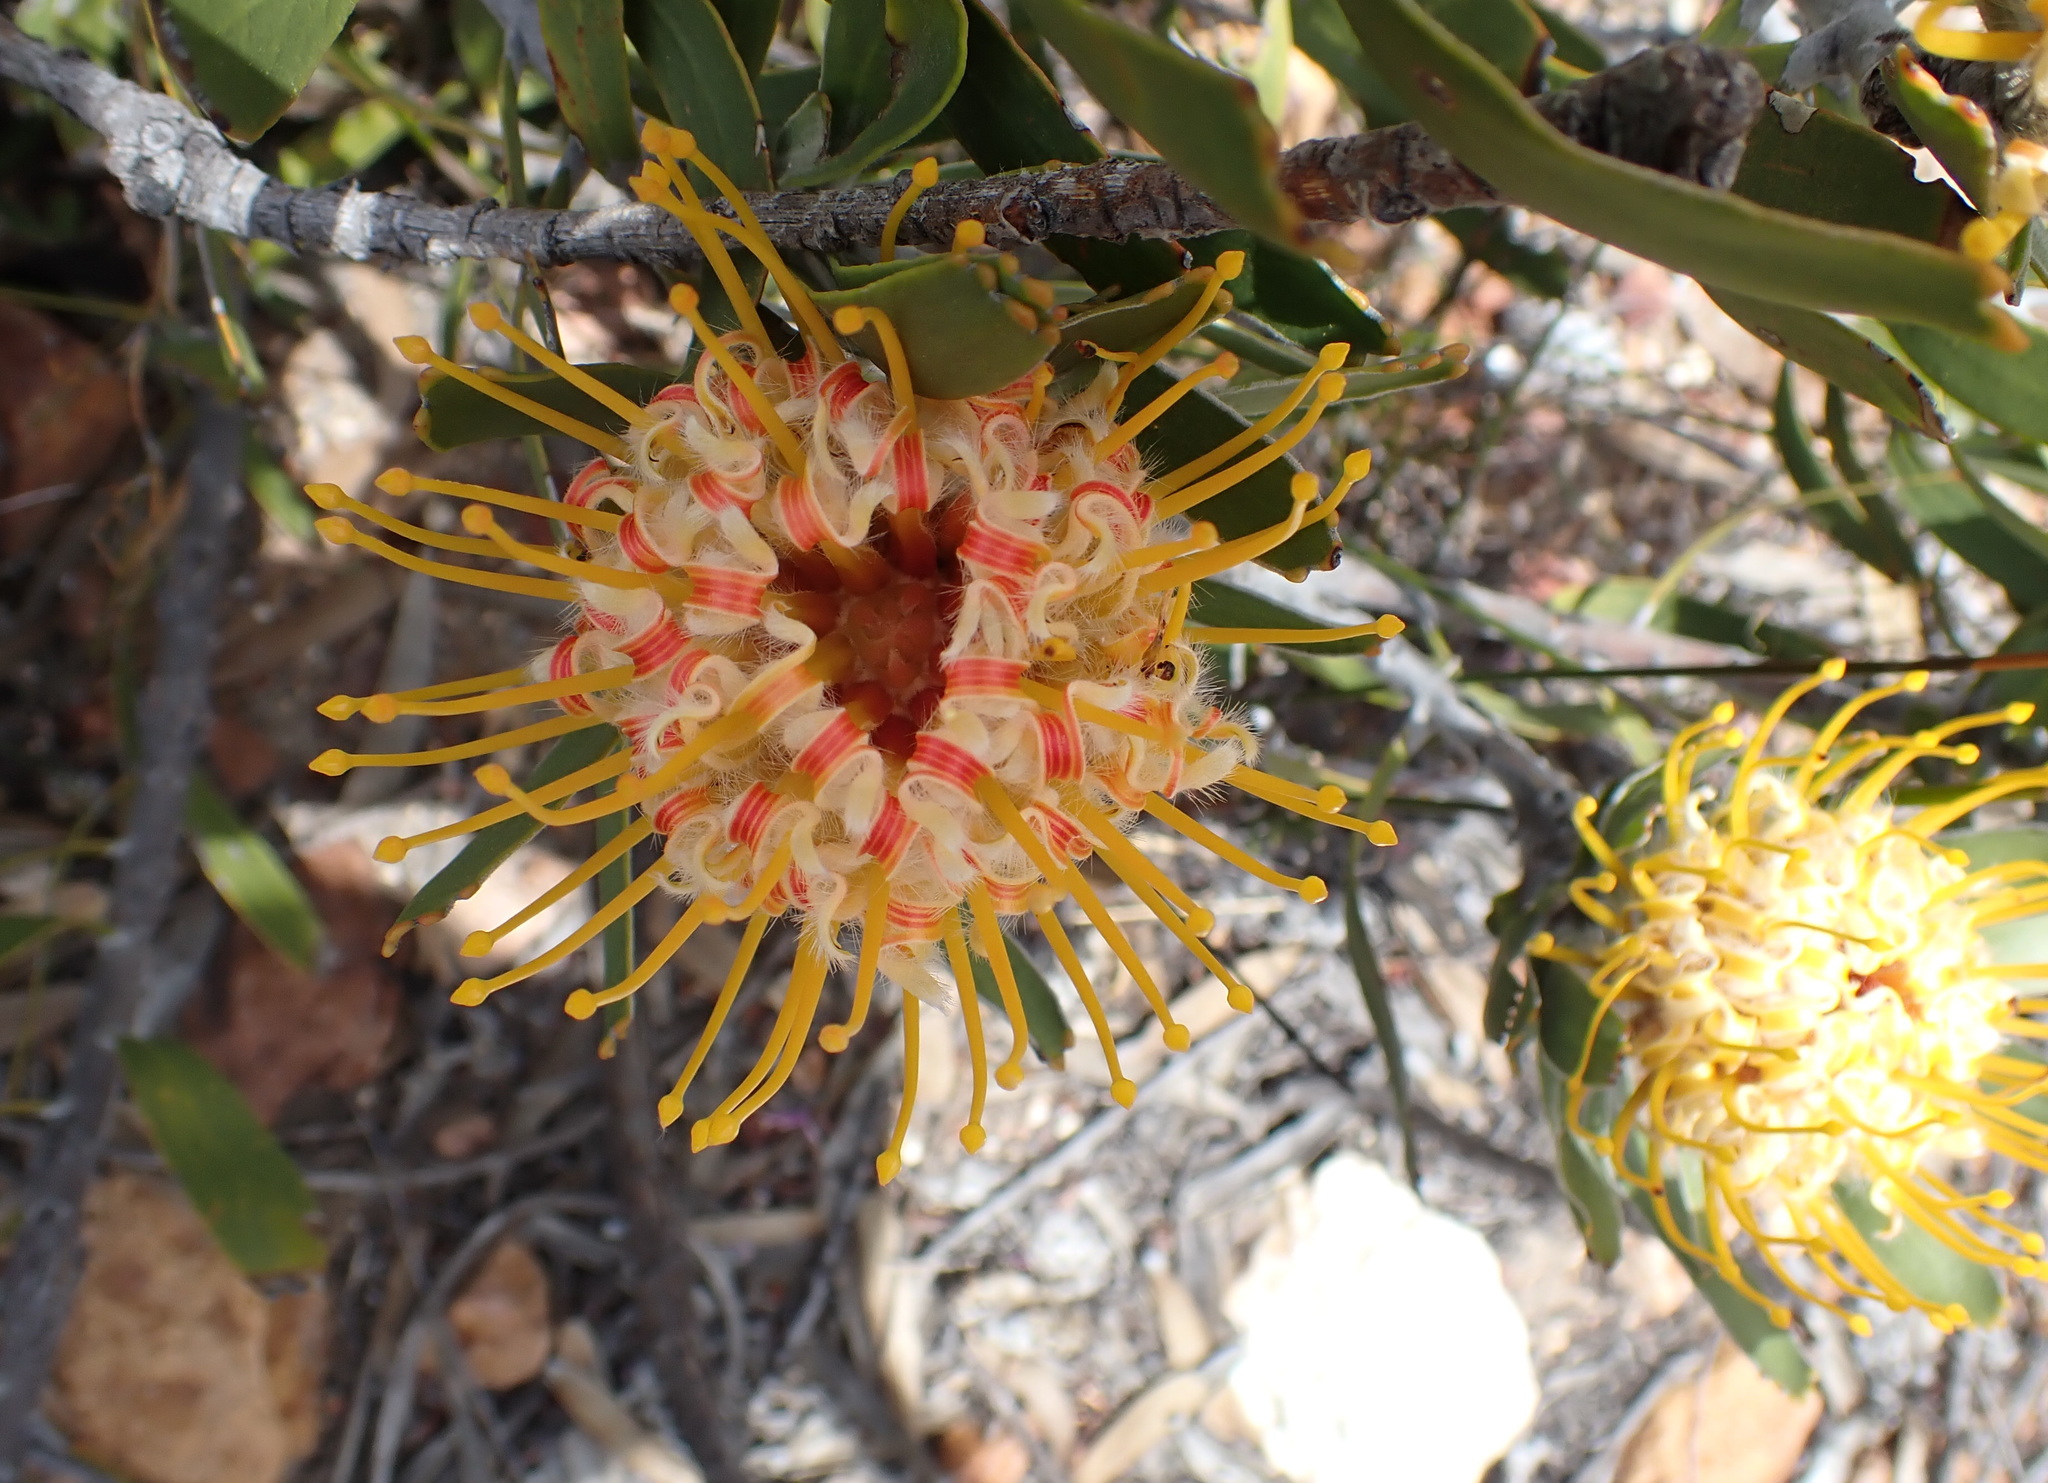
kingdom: Plantae
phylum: Tracheophyta
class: Magnoliopsida
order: Proteales
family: Proteaceae
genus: Leucospermum
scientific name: Leucospermum cuneiforme
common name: Common pincushion
